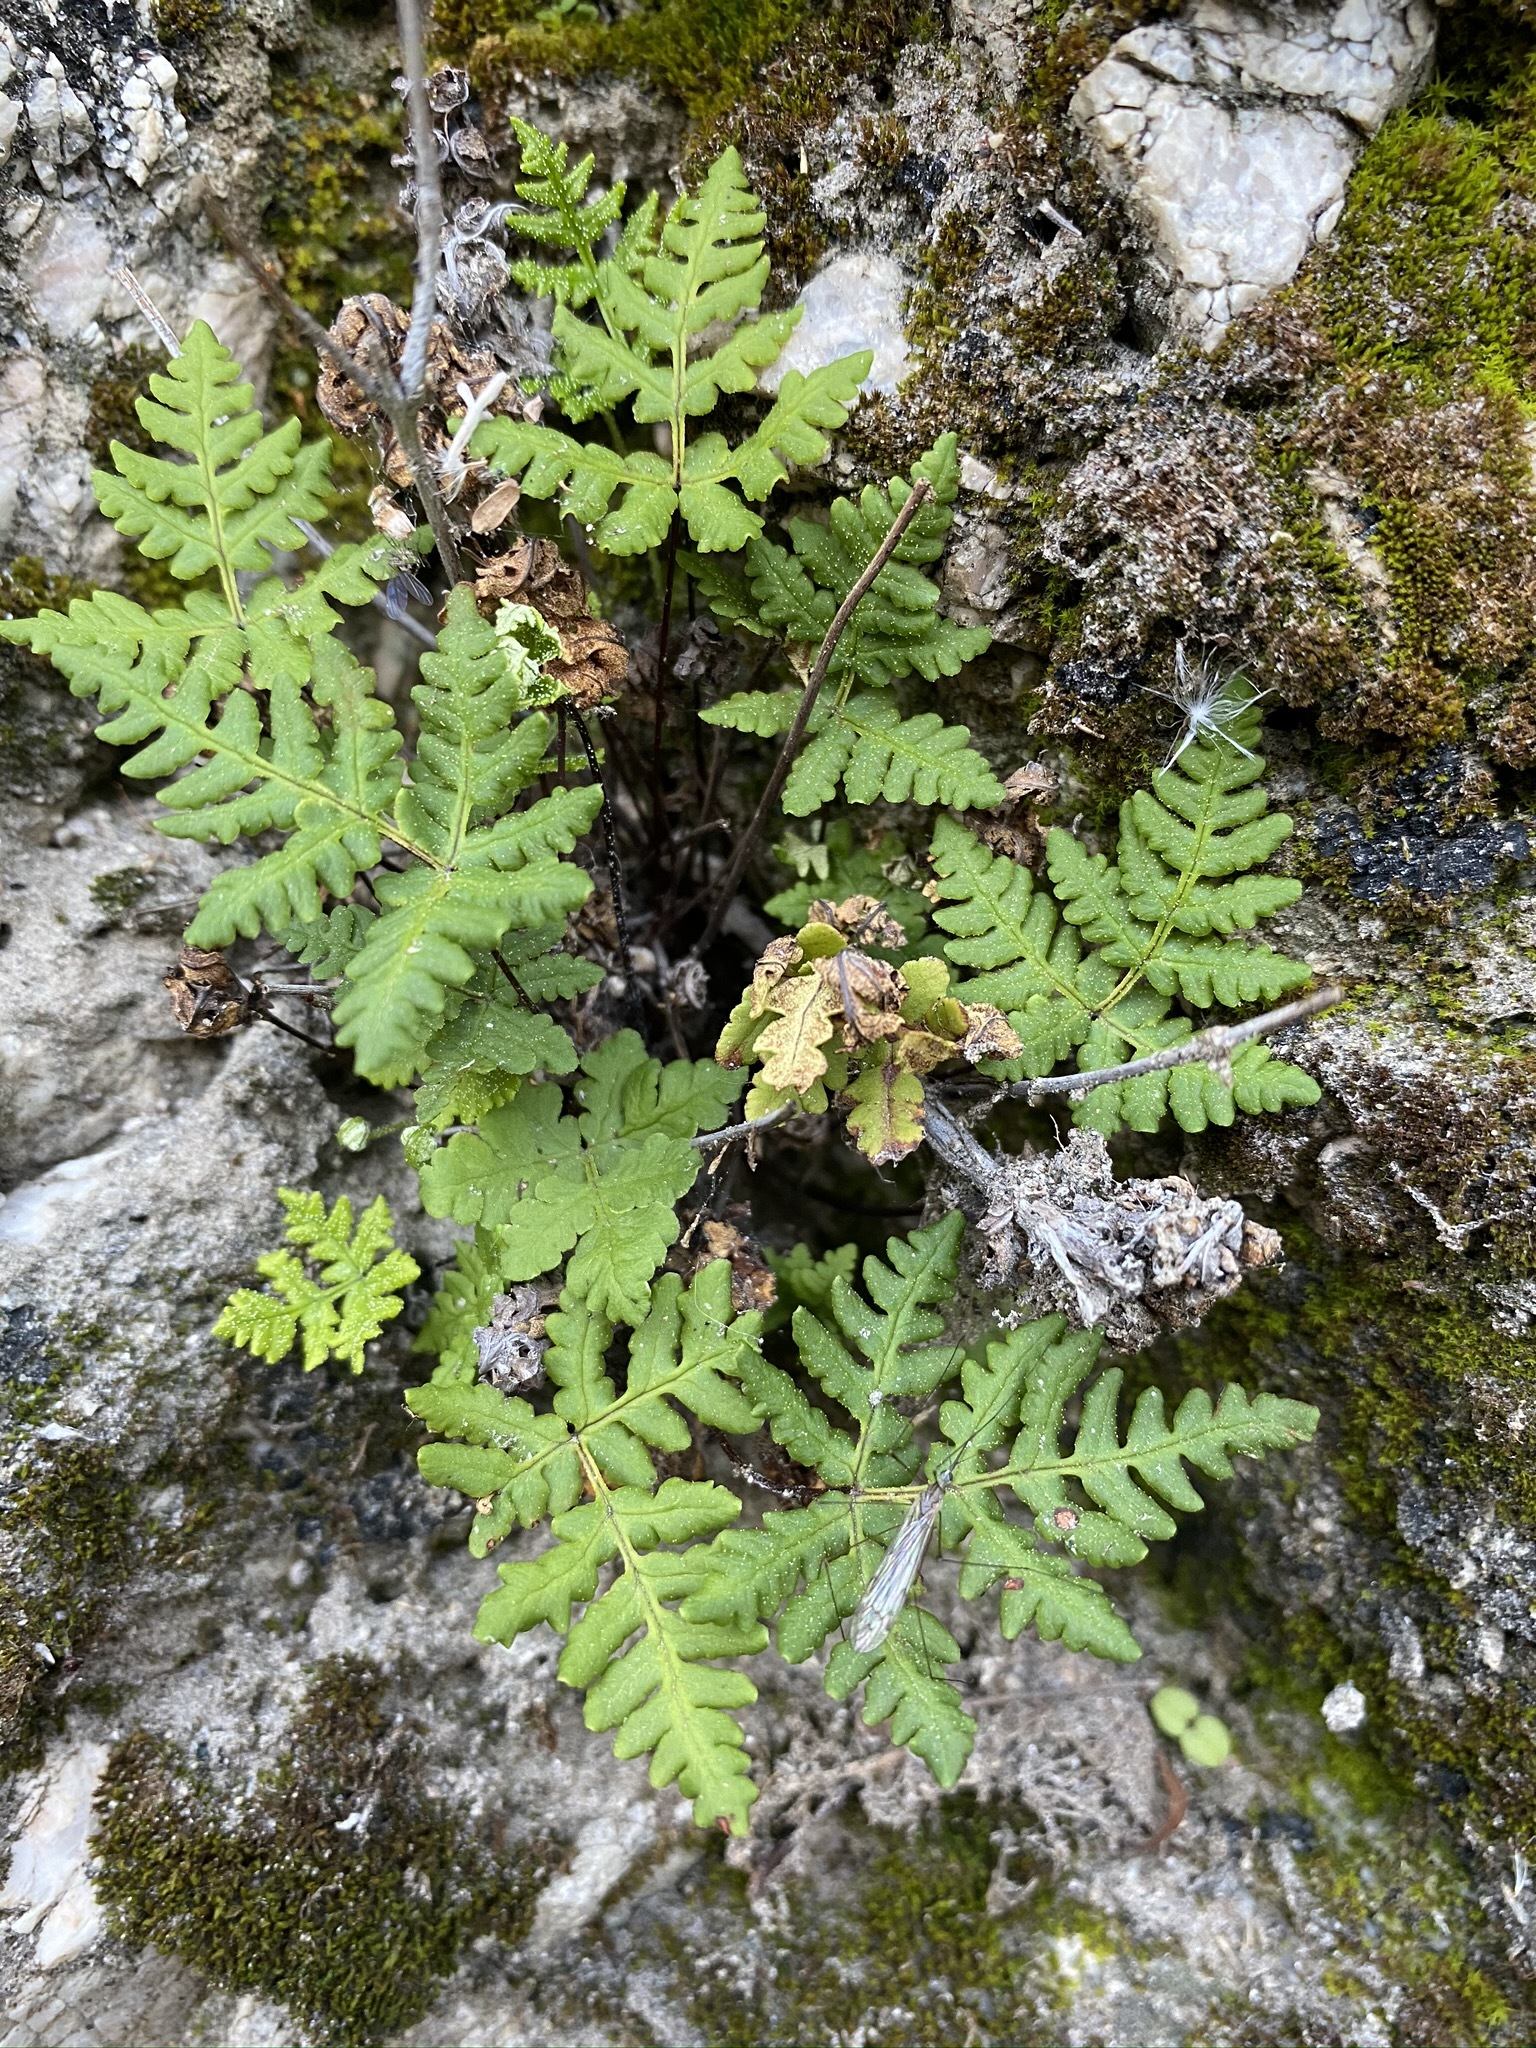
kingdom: Plantae
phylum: Tracheophyta
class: Polypodiopsida
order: Polypodiales
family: Pteridaceae
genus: Pentagramma
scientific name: Pentagramma maxonii
